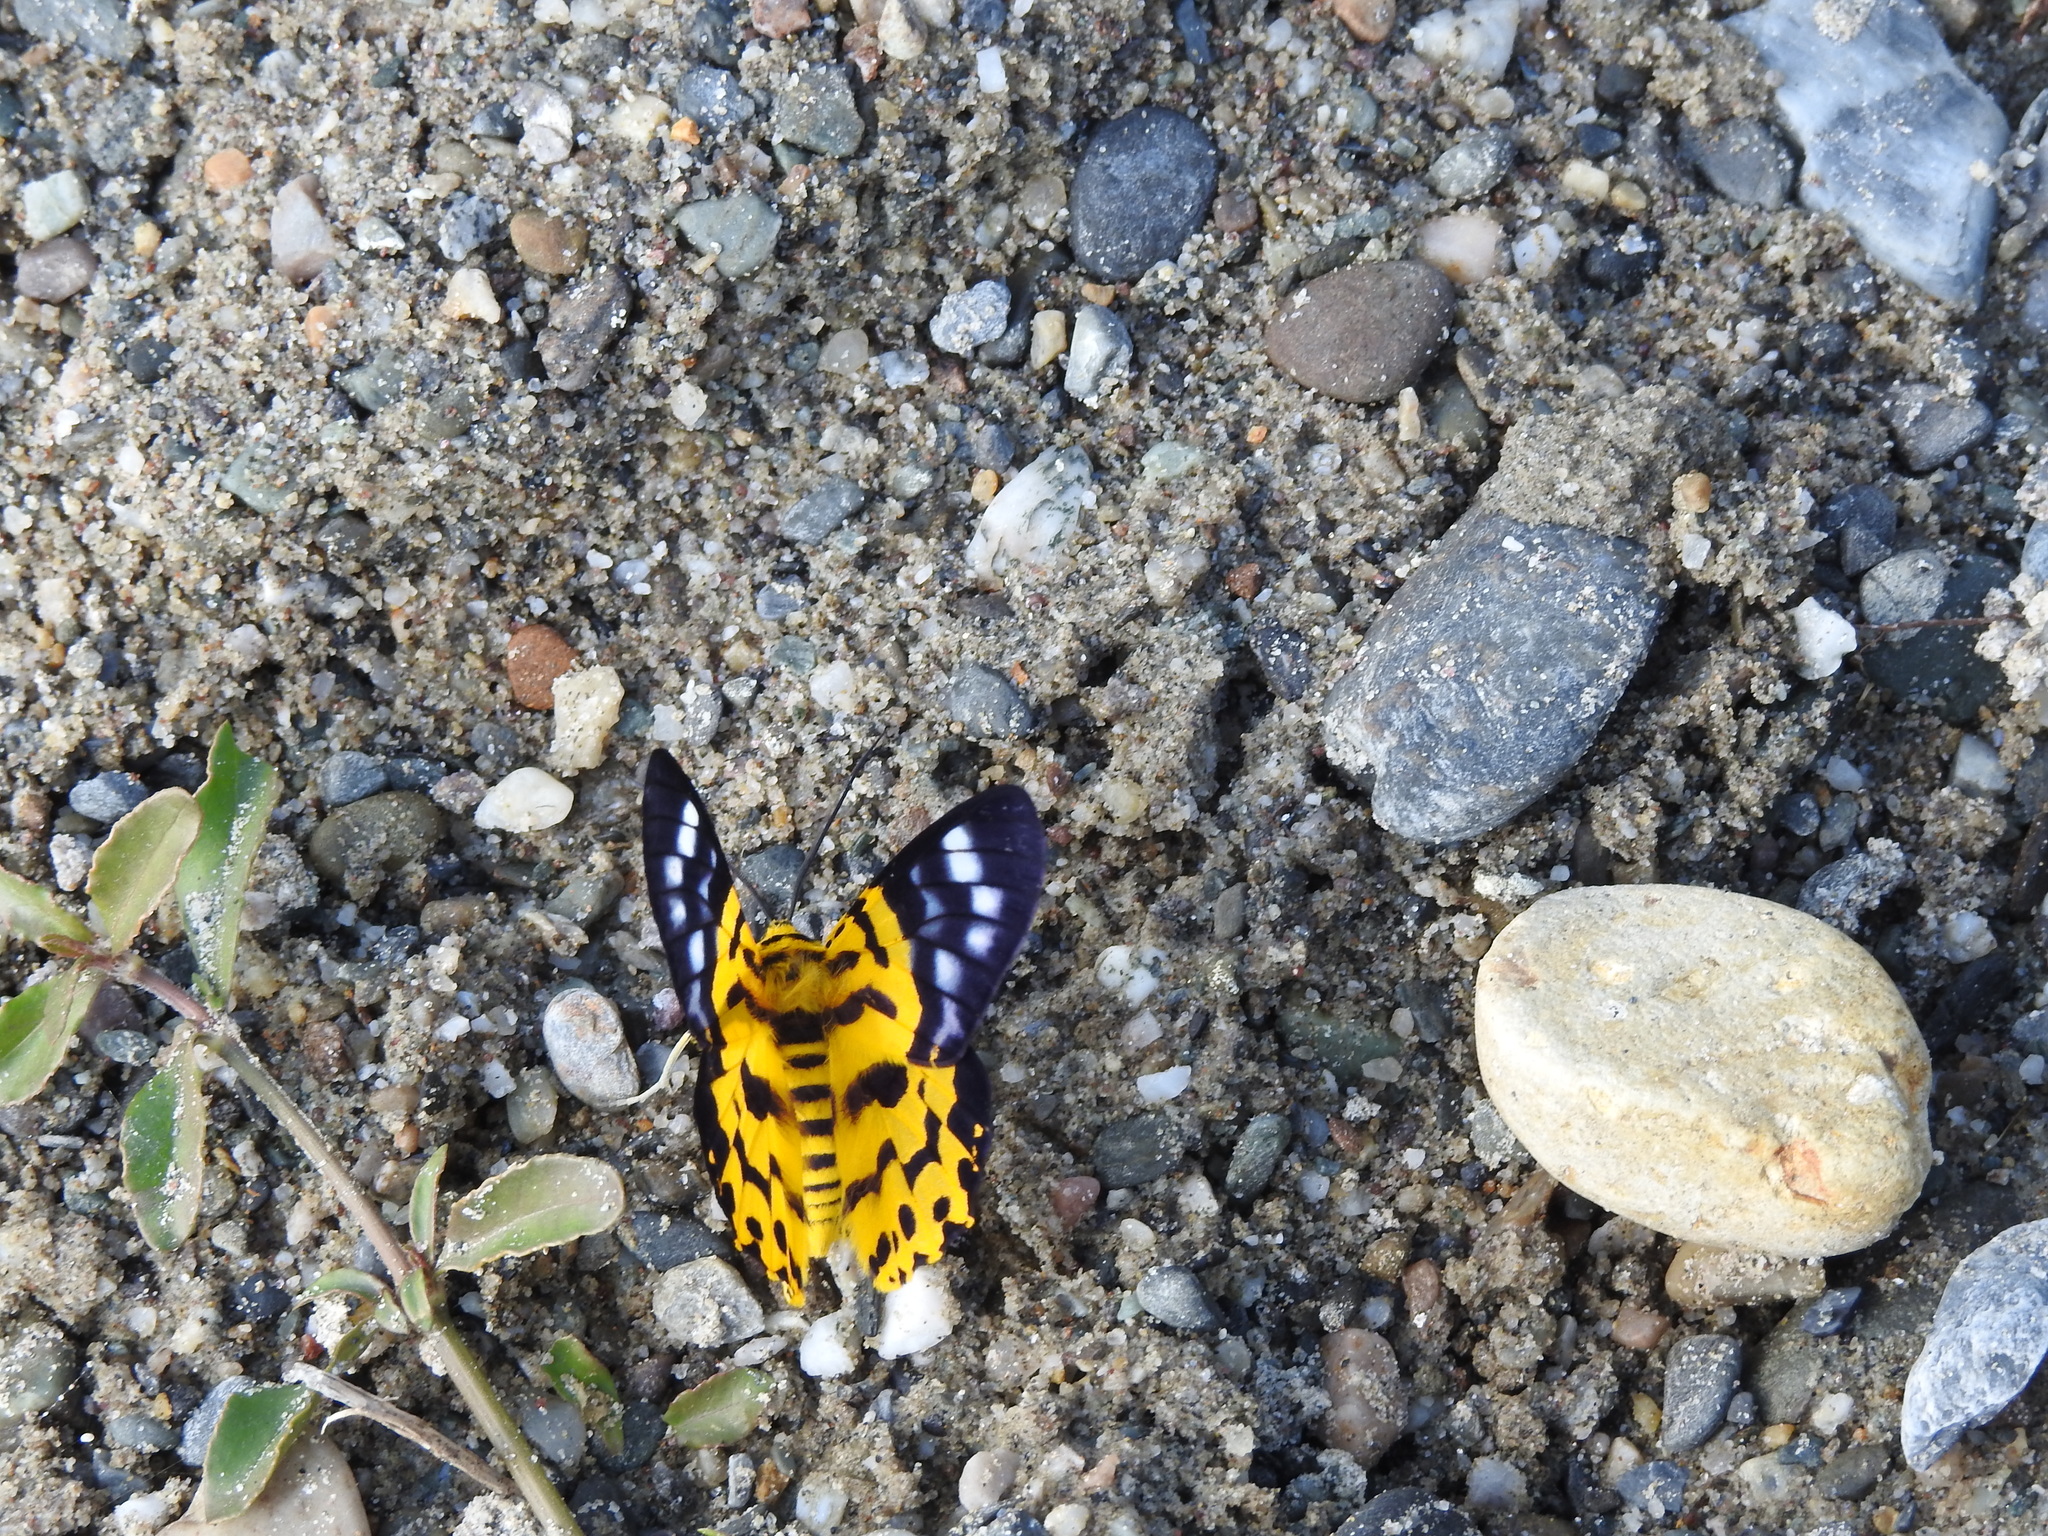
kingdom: Animalia
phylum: Arthropoda
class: Insecta
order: Lepidoptera
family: Geometridae
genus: Dysphania
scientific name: Dysphania militaris
